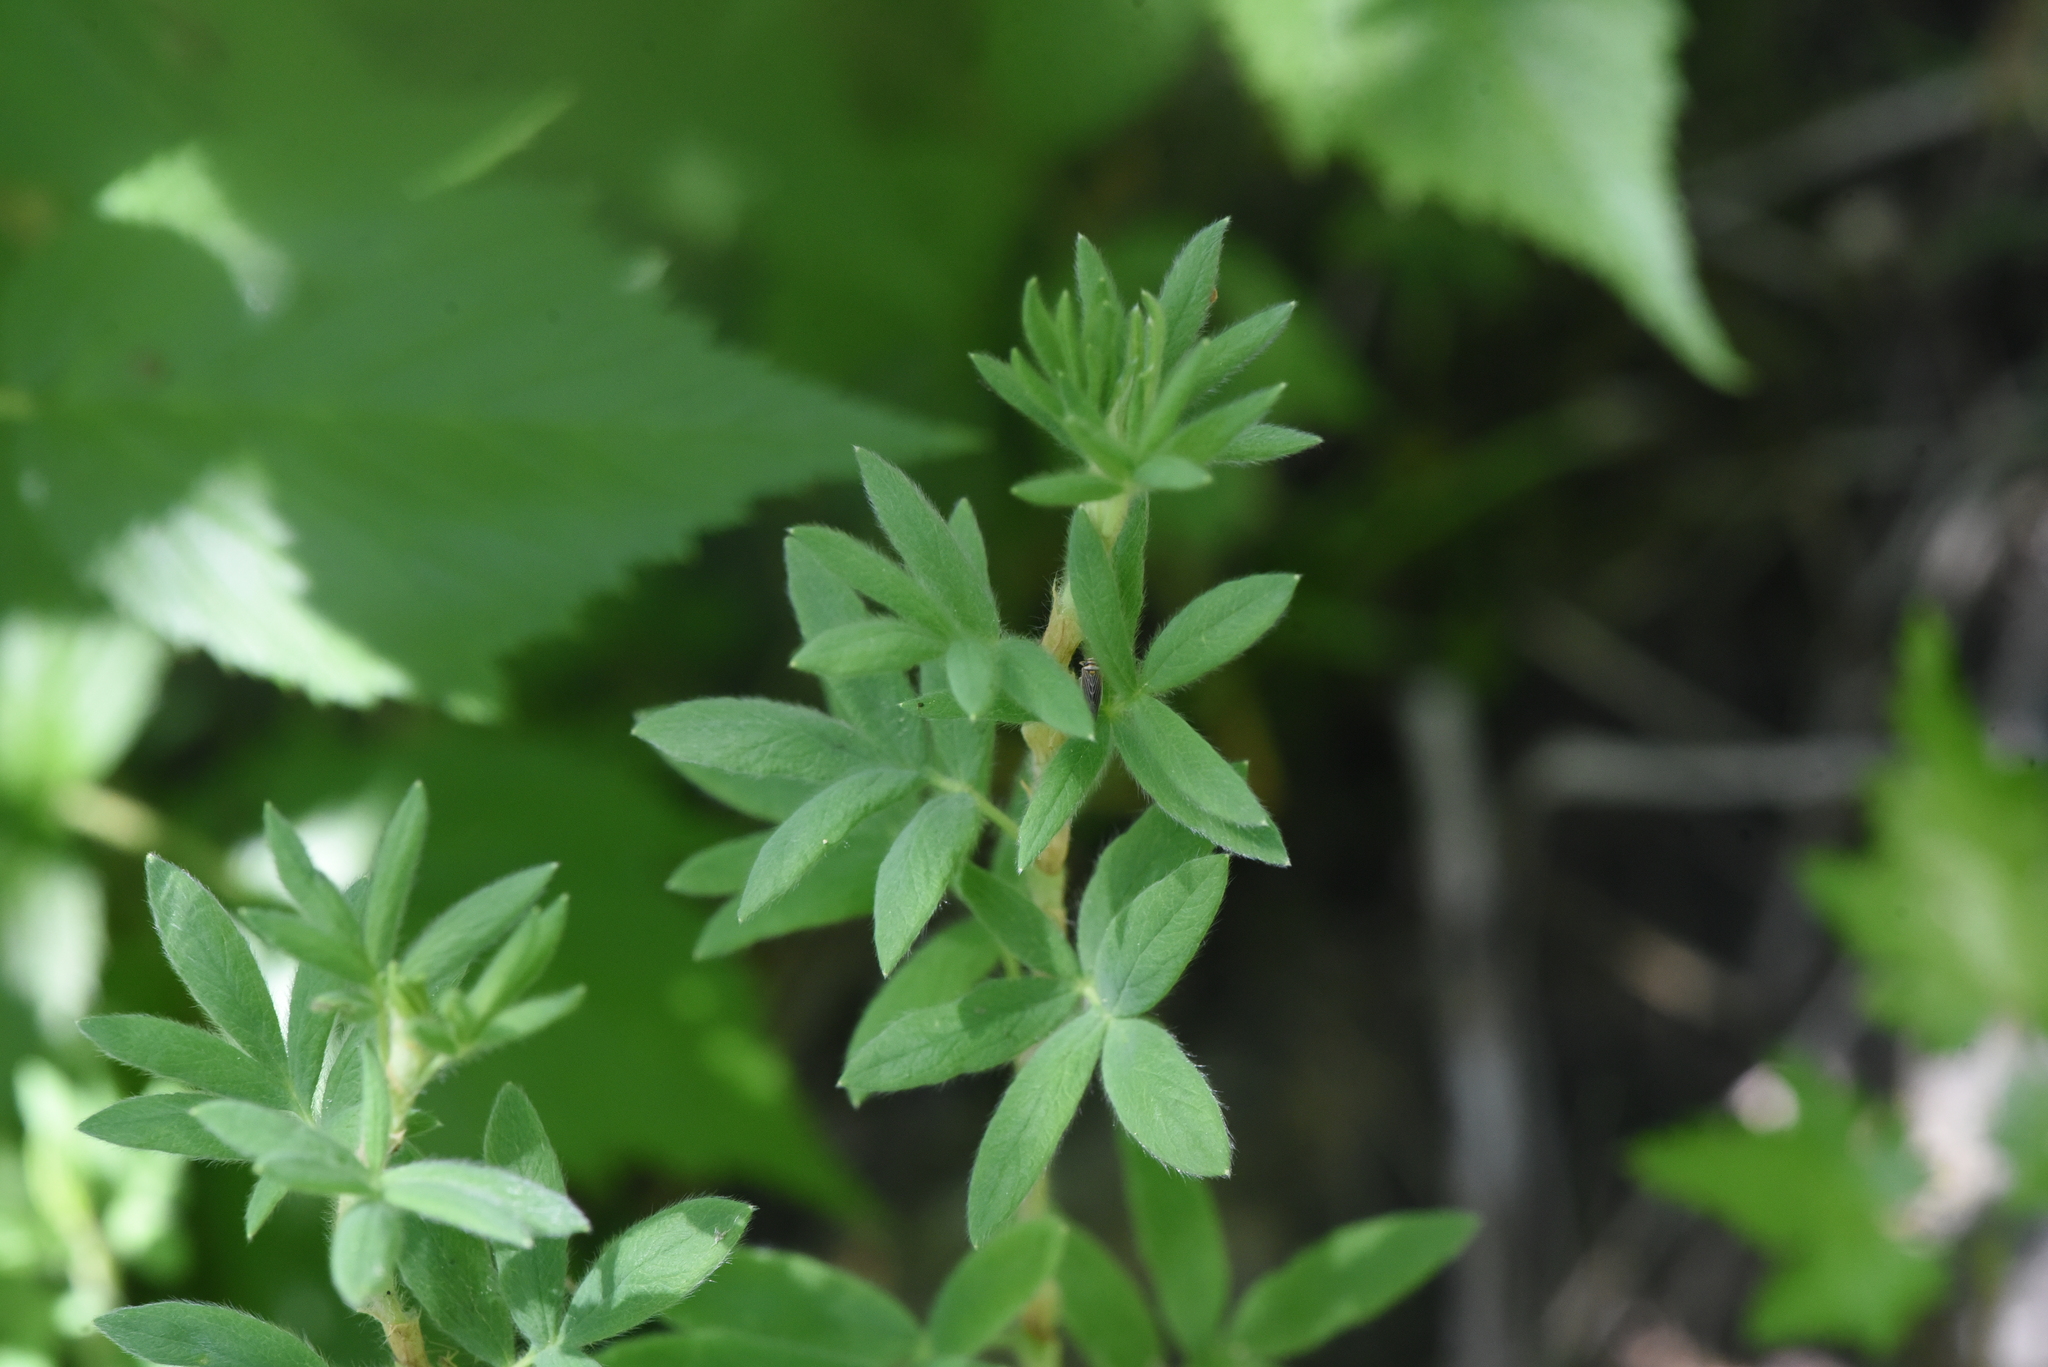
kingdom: Plantae
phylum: Tracheophyta
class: Magnoliopsida
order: Rosales
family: Rosaceae
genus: Dasiphora
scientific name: Dasiphora fruticosa
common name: Shrubby cinquefoil
